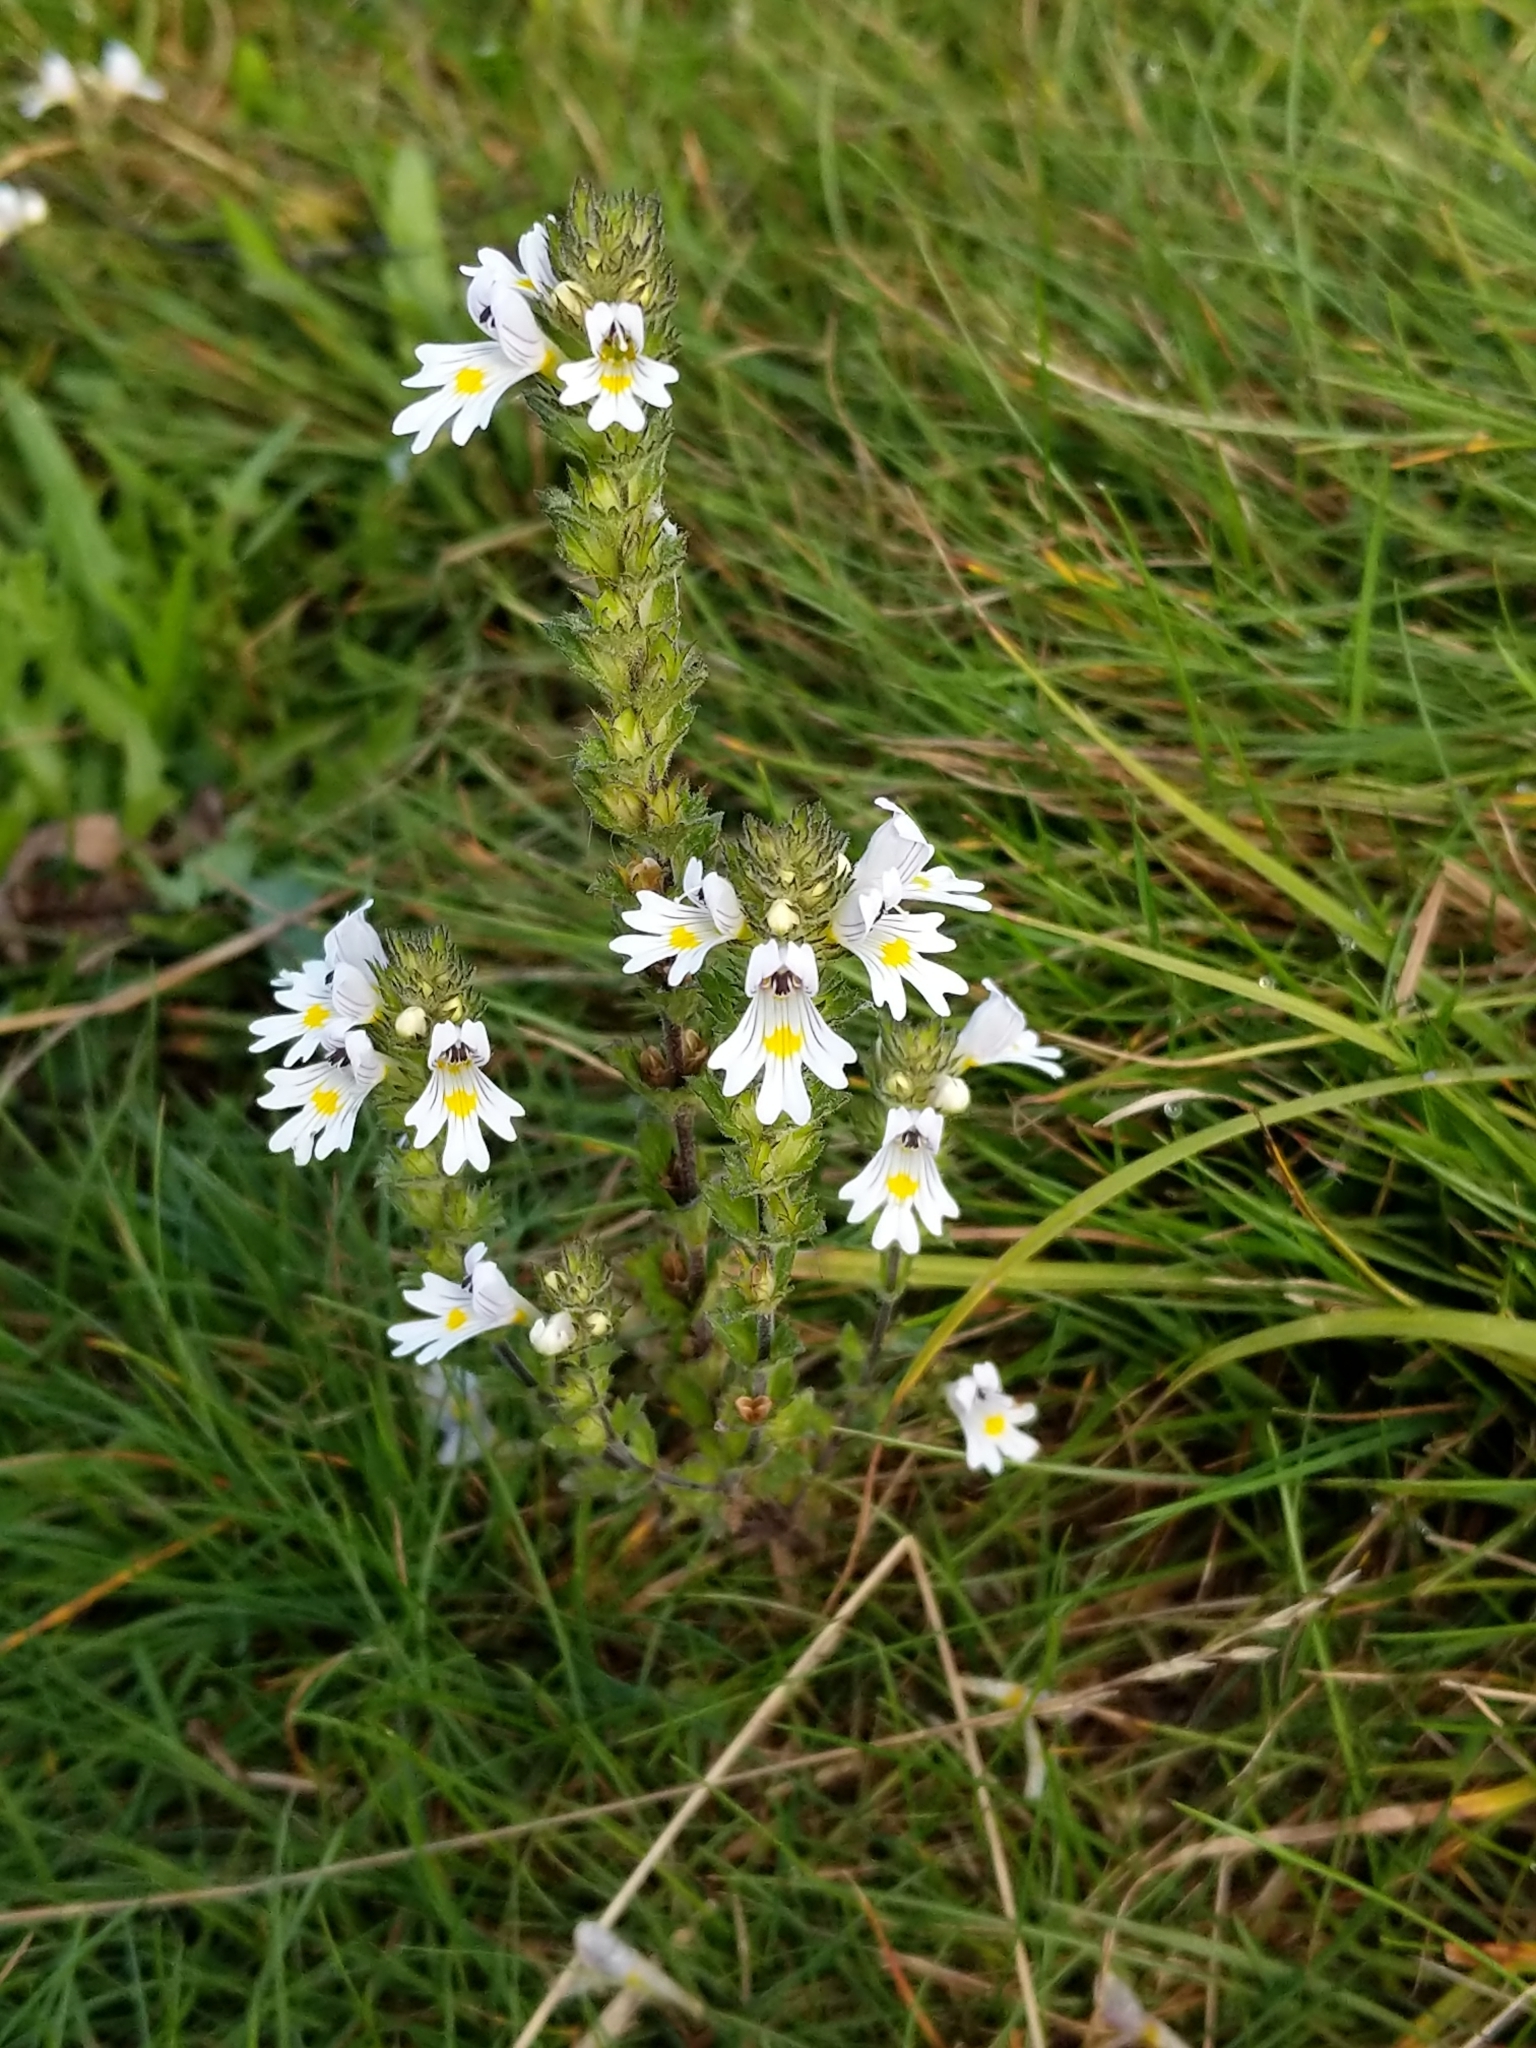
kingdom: Plantae
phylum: Tracheophyta
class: Magnoliopsida
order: Lamiales
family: Orobanchaceae
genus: Euphrasia
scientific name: Euphrasia officinalis
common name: Eyebright
